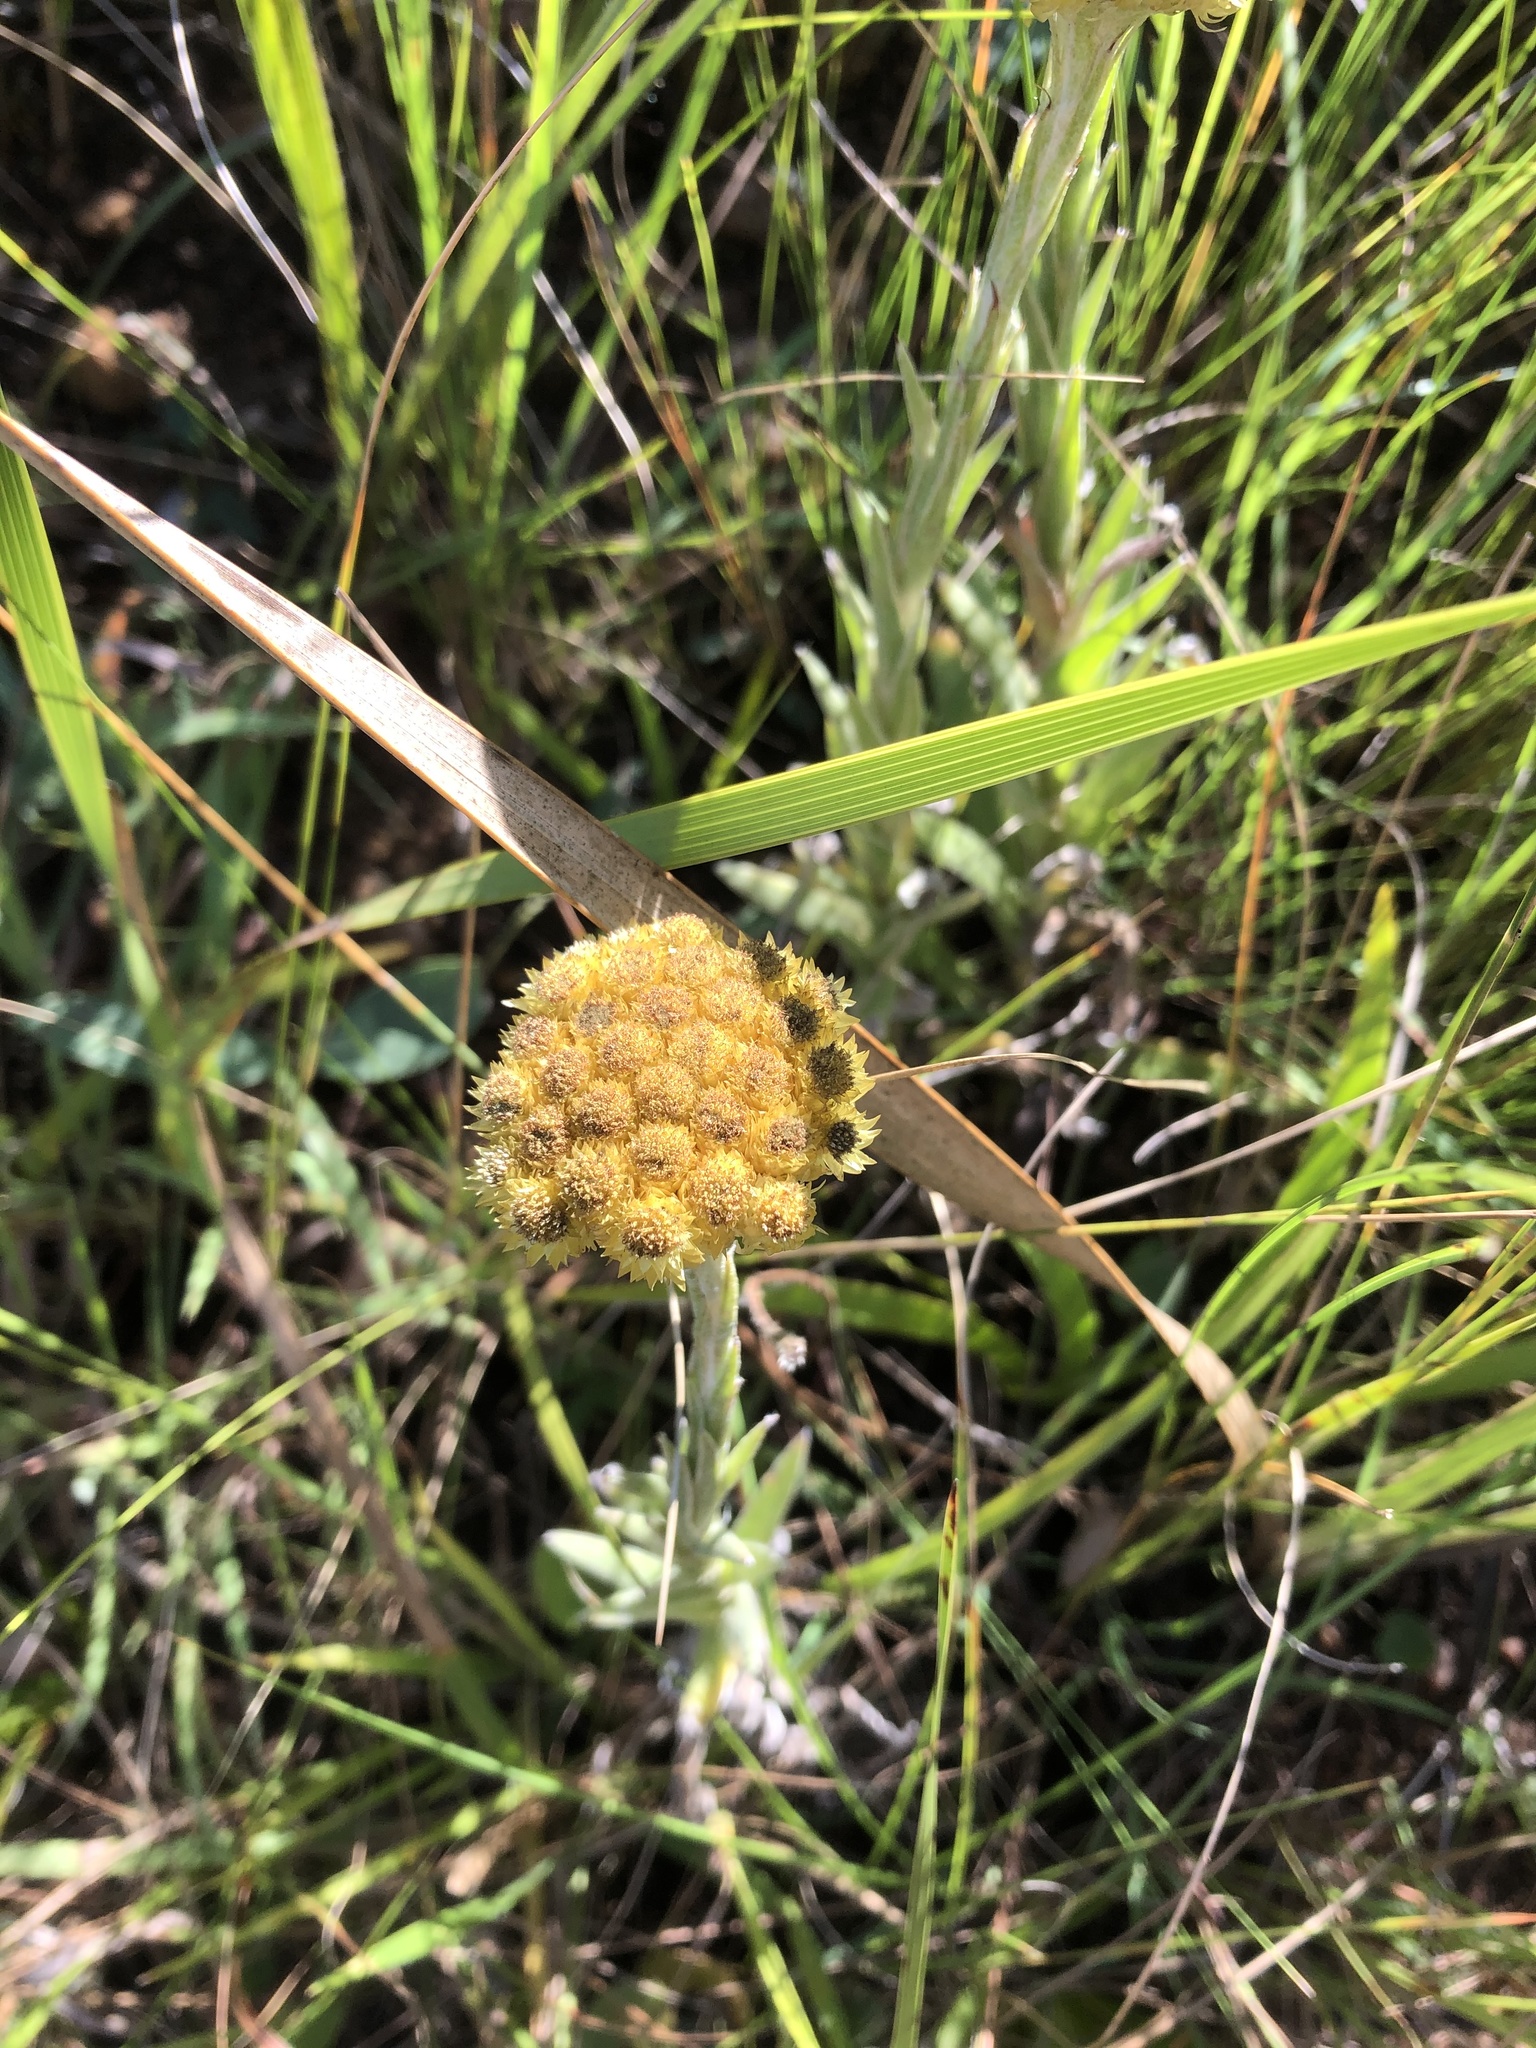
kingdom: Plantae
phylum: Tracheophyta
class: Magnoliopsida
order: Asterales
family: Asteraceae
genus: Helichrysum
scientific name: Helichrysum auriceps
